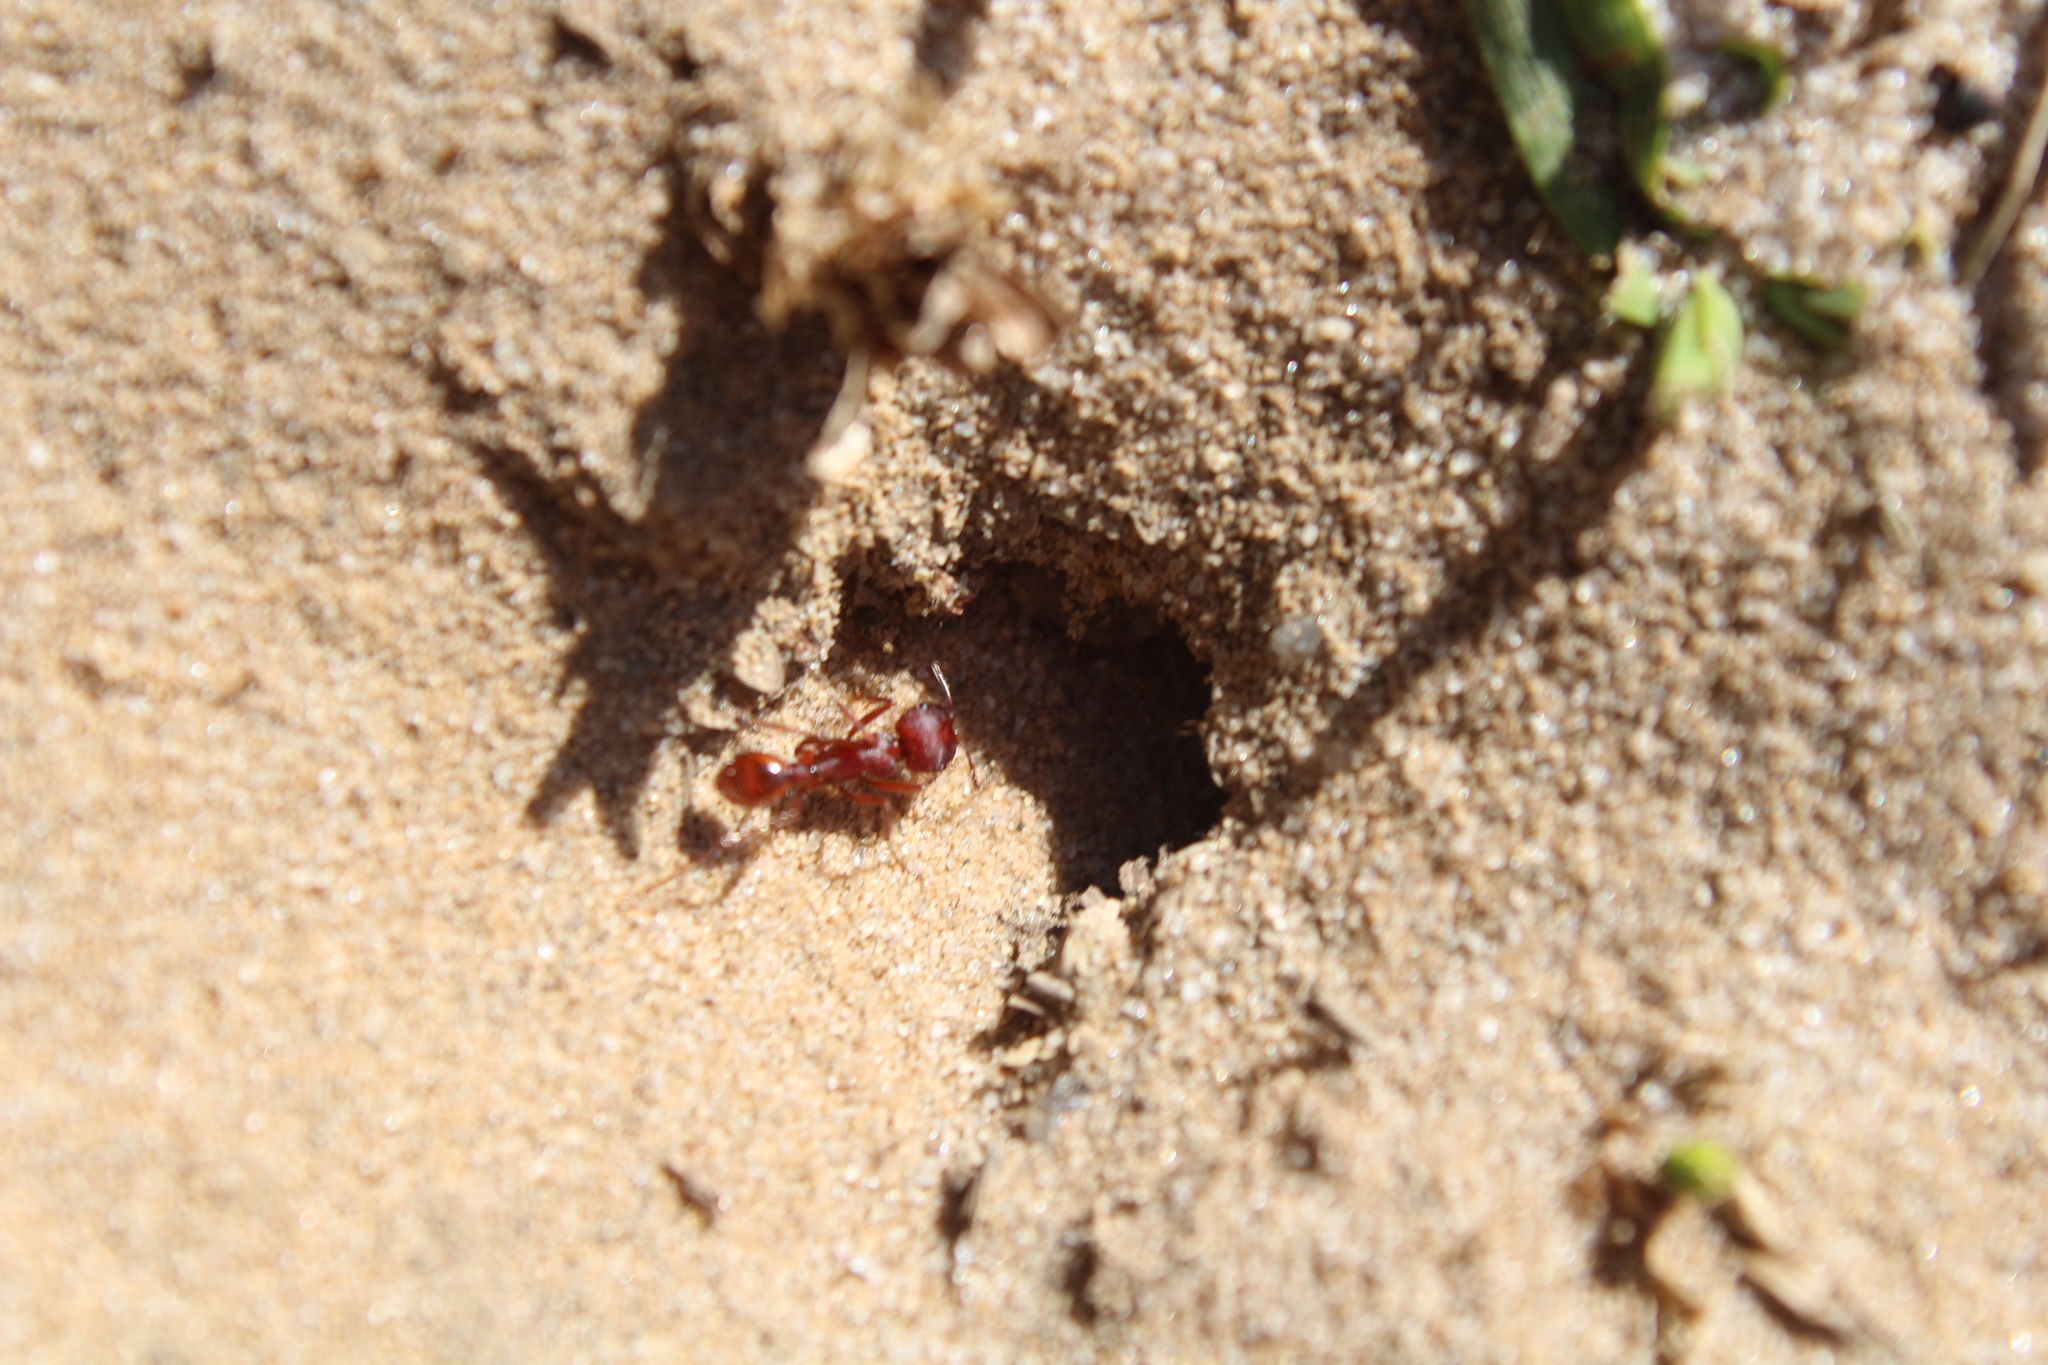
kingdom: Animalia
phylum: Arthropoda
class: Insecta
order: Hymenoptera
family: Formicidae
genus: Pogonomyrmex
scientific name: Pogonomyrmex badius
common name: Florida harvester ant
